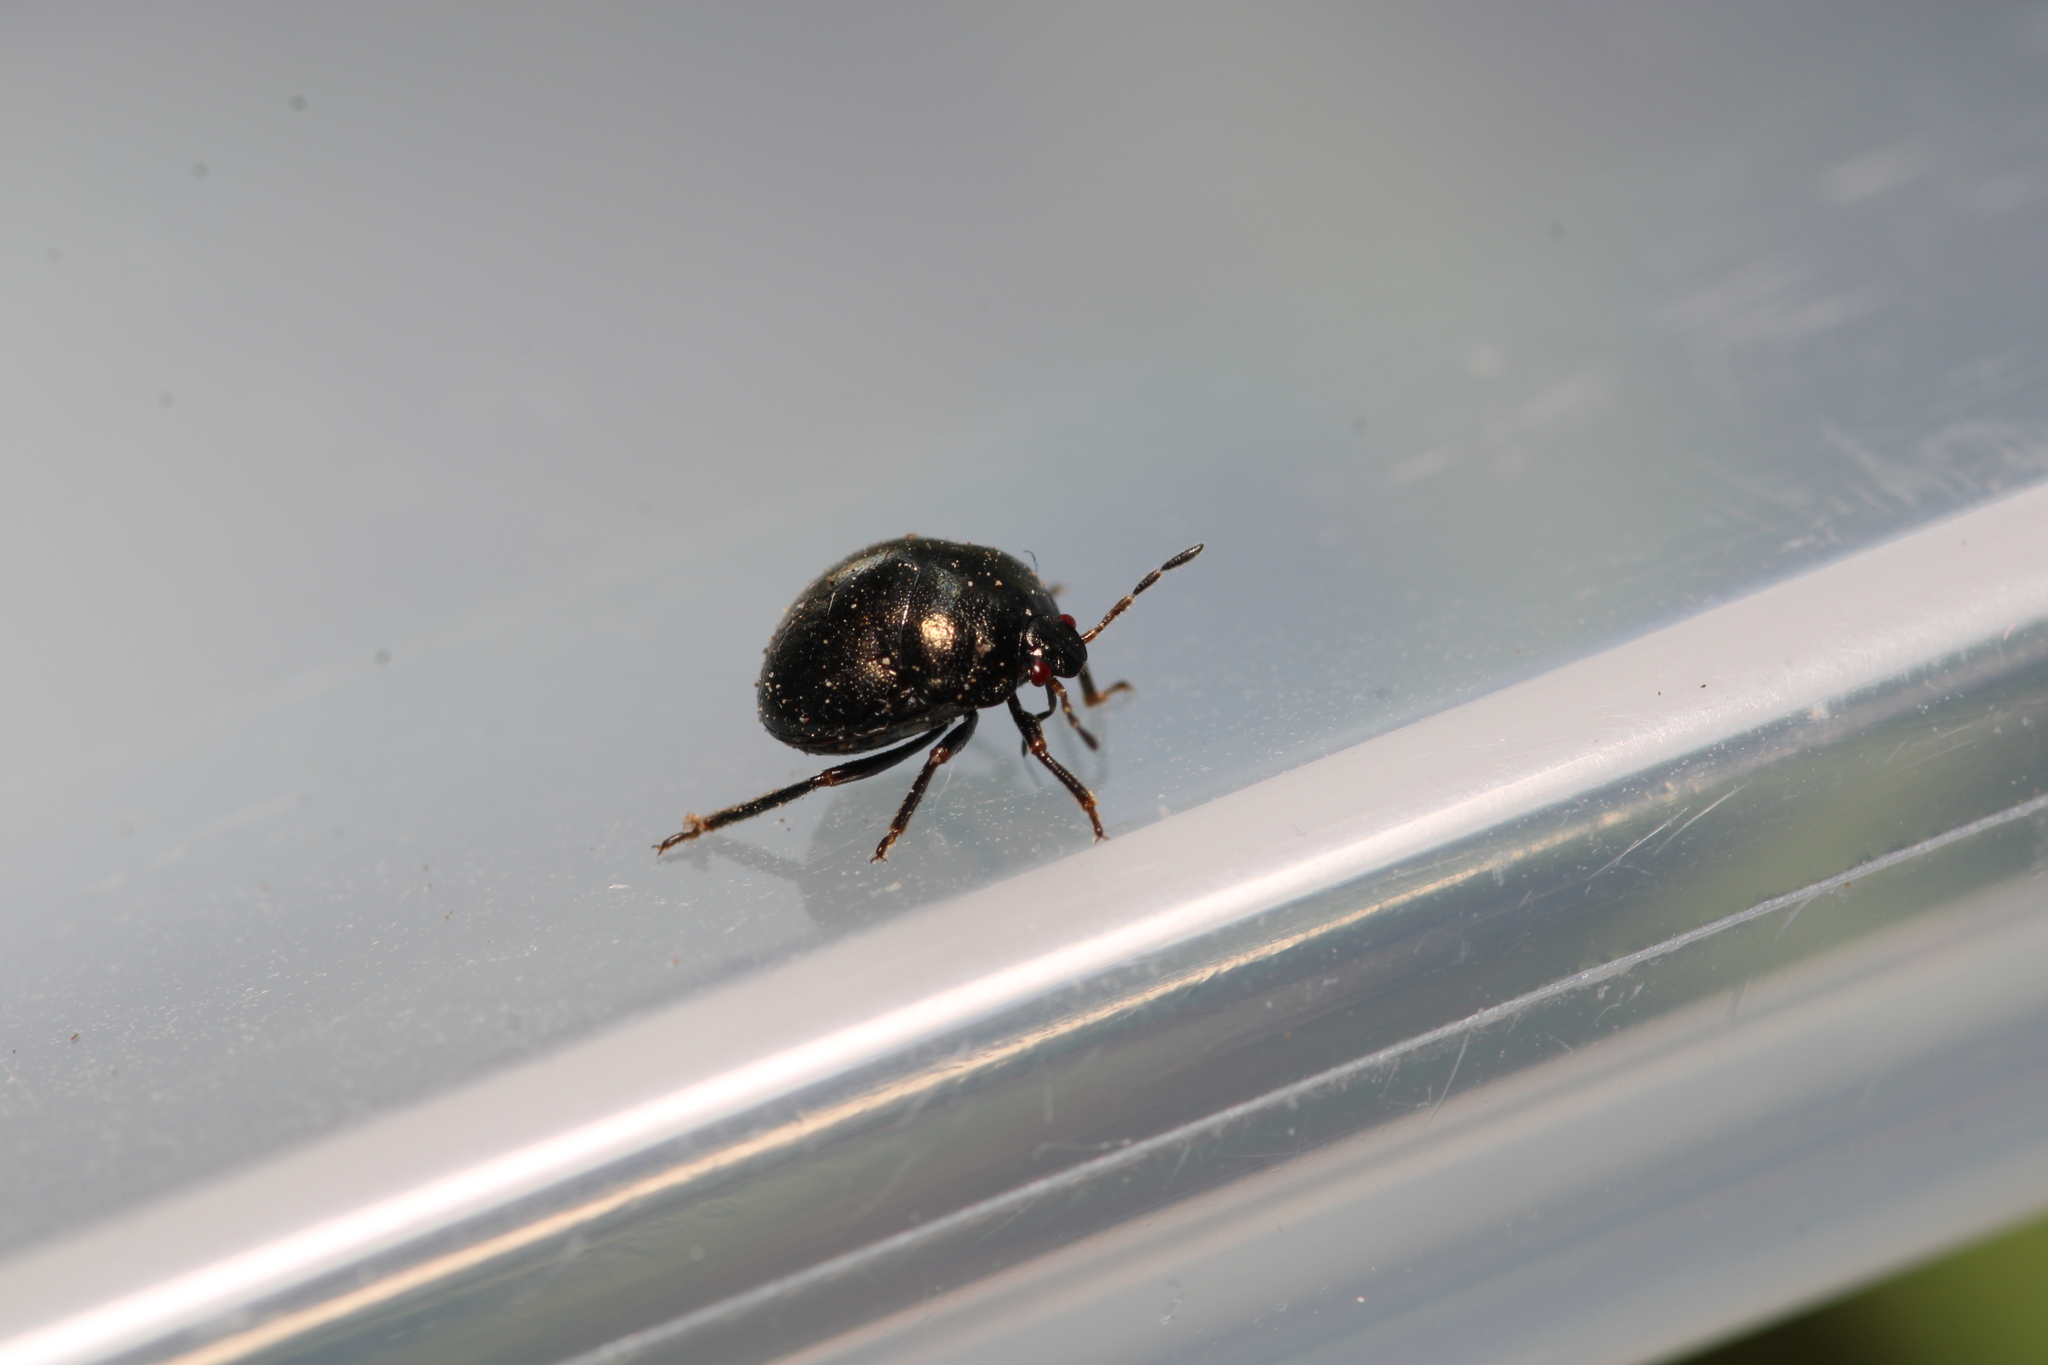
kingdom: Animalia
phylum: Arthropoda
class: Insecta
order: Hemiptera
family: Plataspidae
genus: Coptosoma
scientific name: Coptosoma scutellatum
